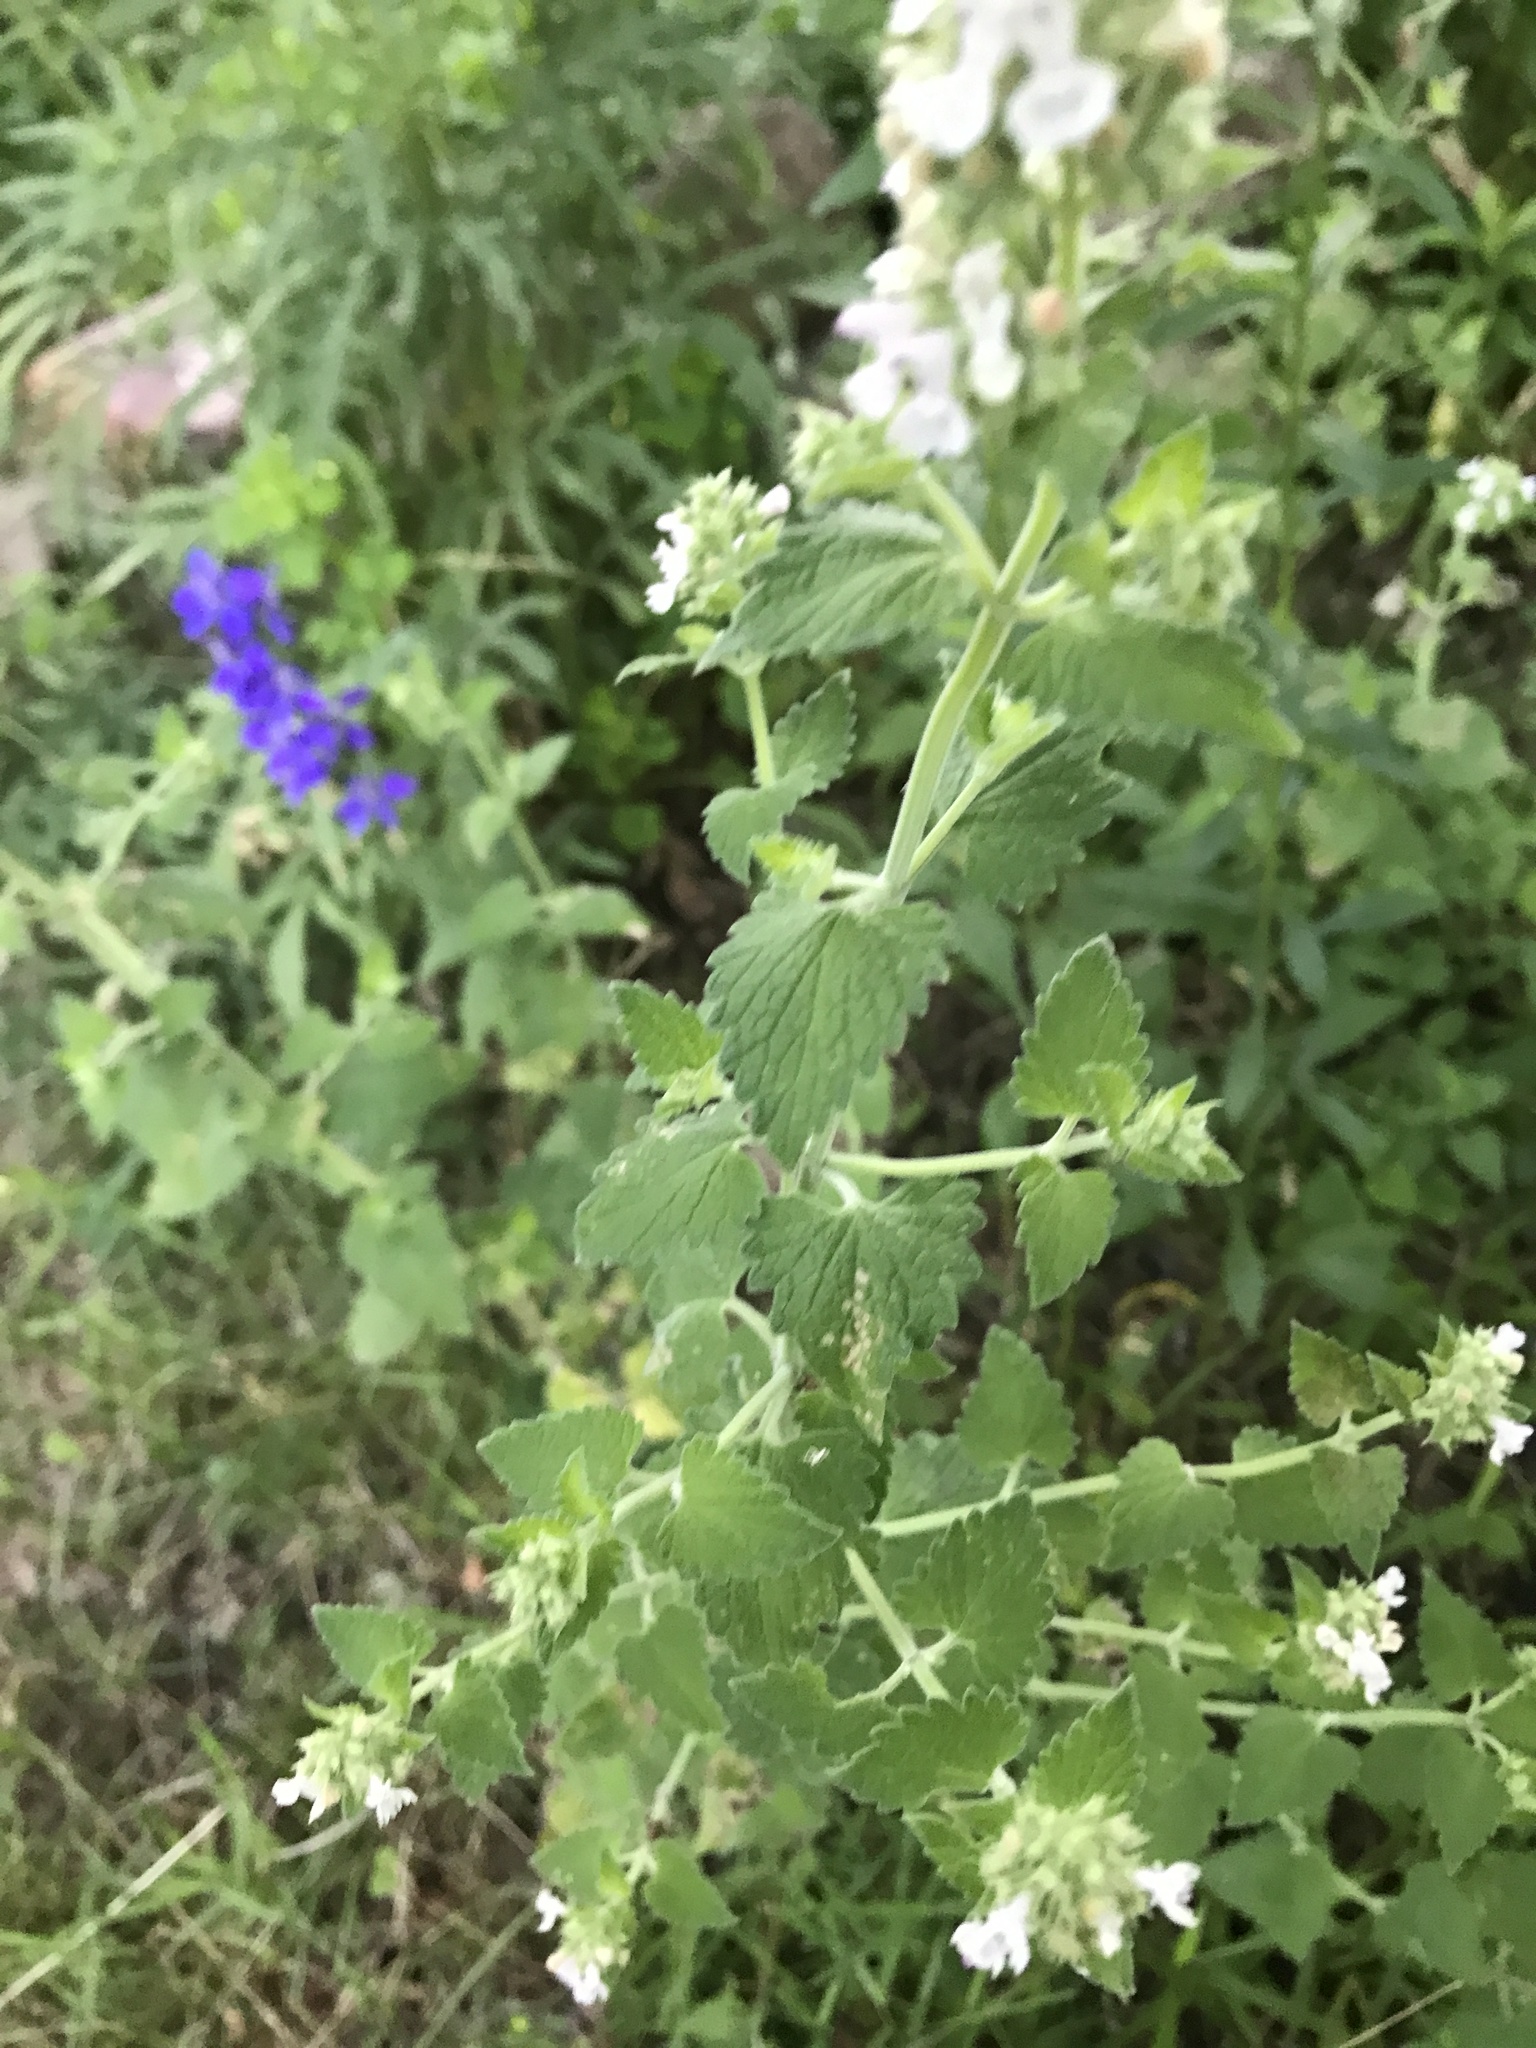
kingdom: Plantae
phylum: Tracheophyta
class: Magnoliopsida
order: Lamiales
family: Lamiaceae
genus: Nepeta
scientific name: Nepeta cataria
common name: Catnip
